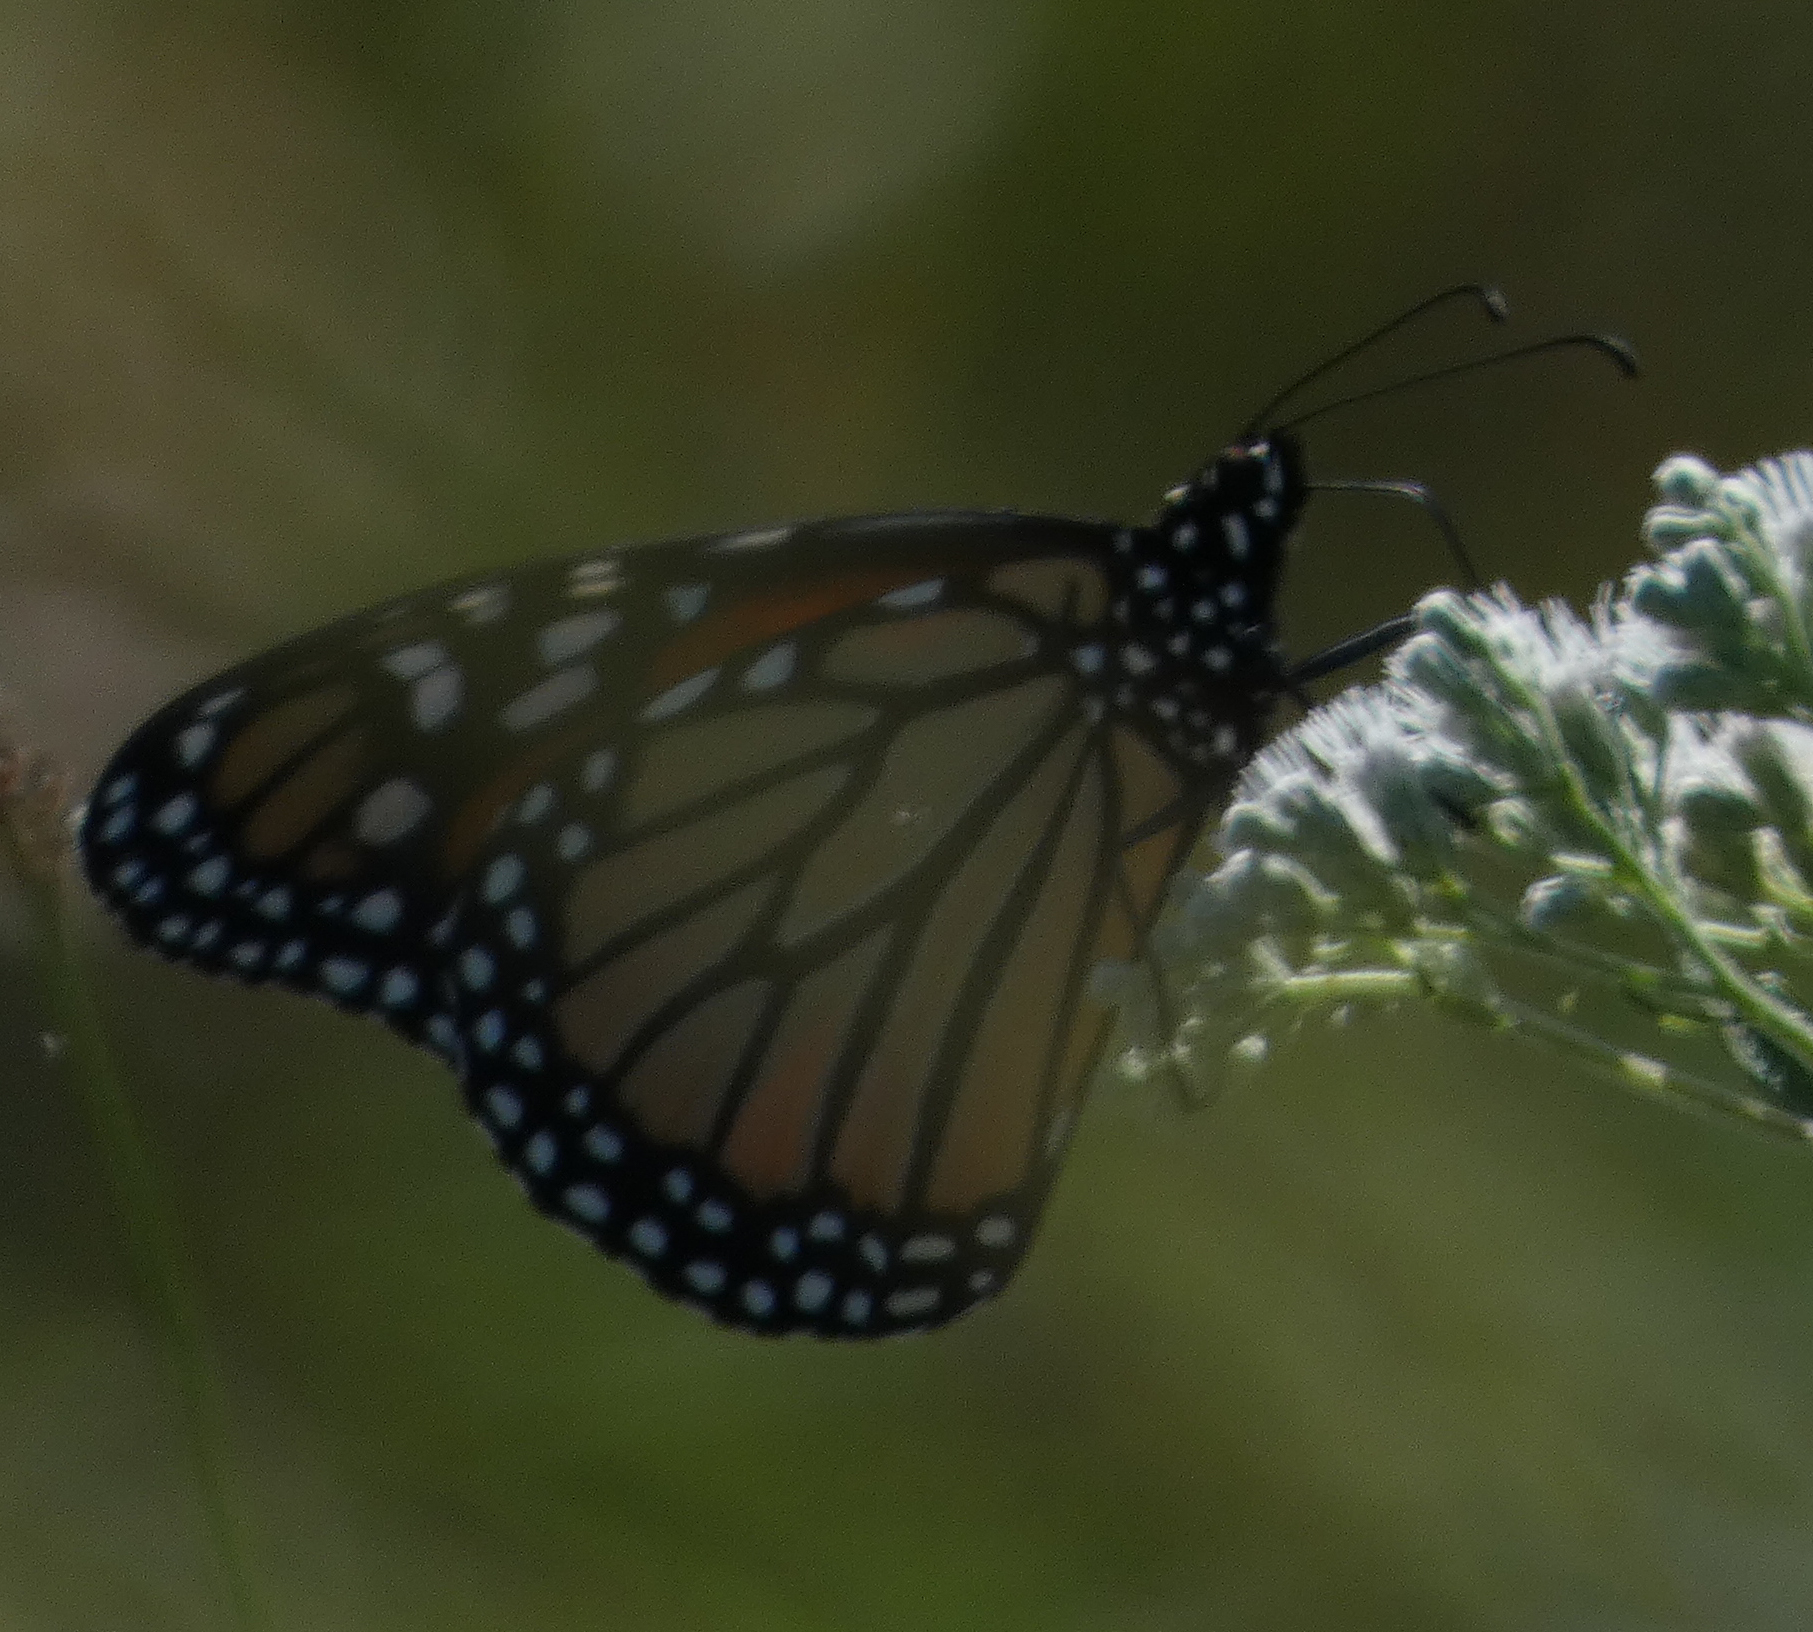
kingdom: Animalia
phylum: Arthropoda
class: Insecta
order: Lepidoptera
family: Nymphalidae
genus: Danaus
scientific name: Danaus plexippus
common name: Monarch
